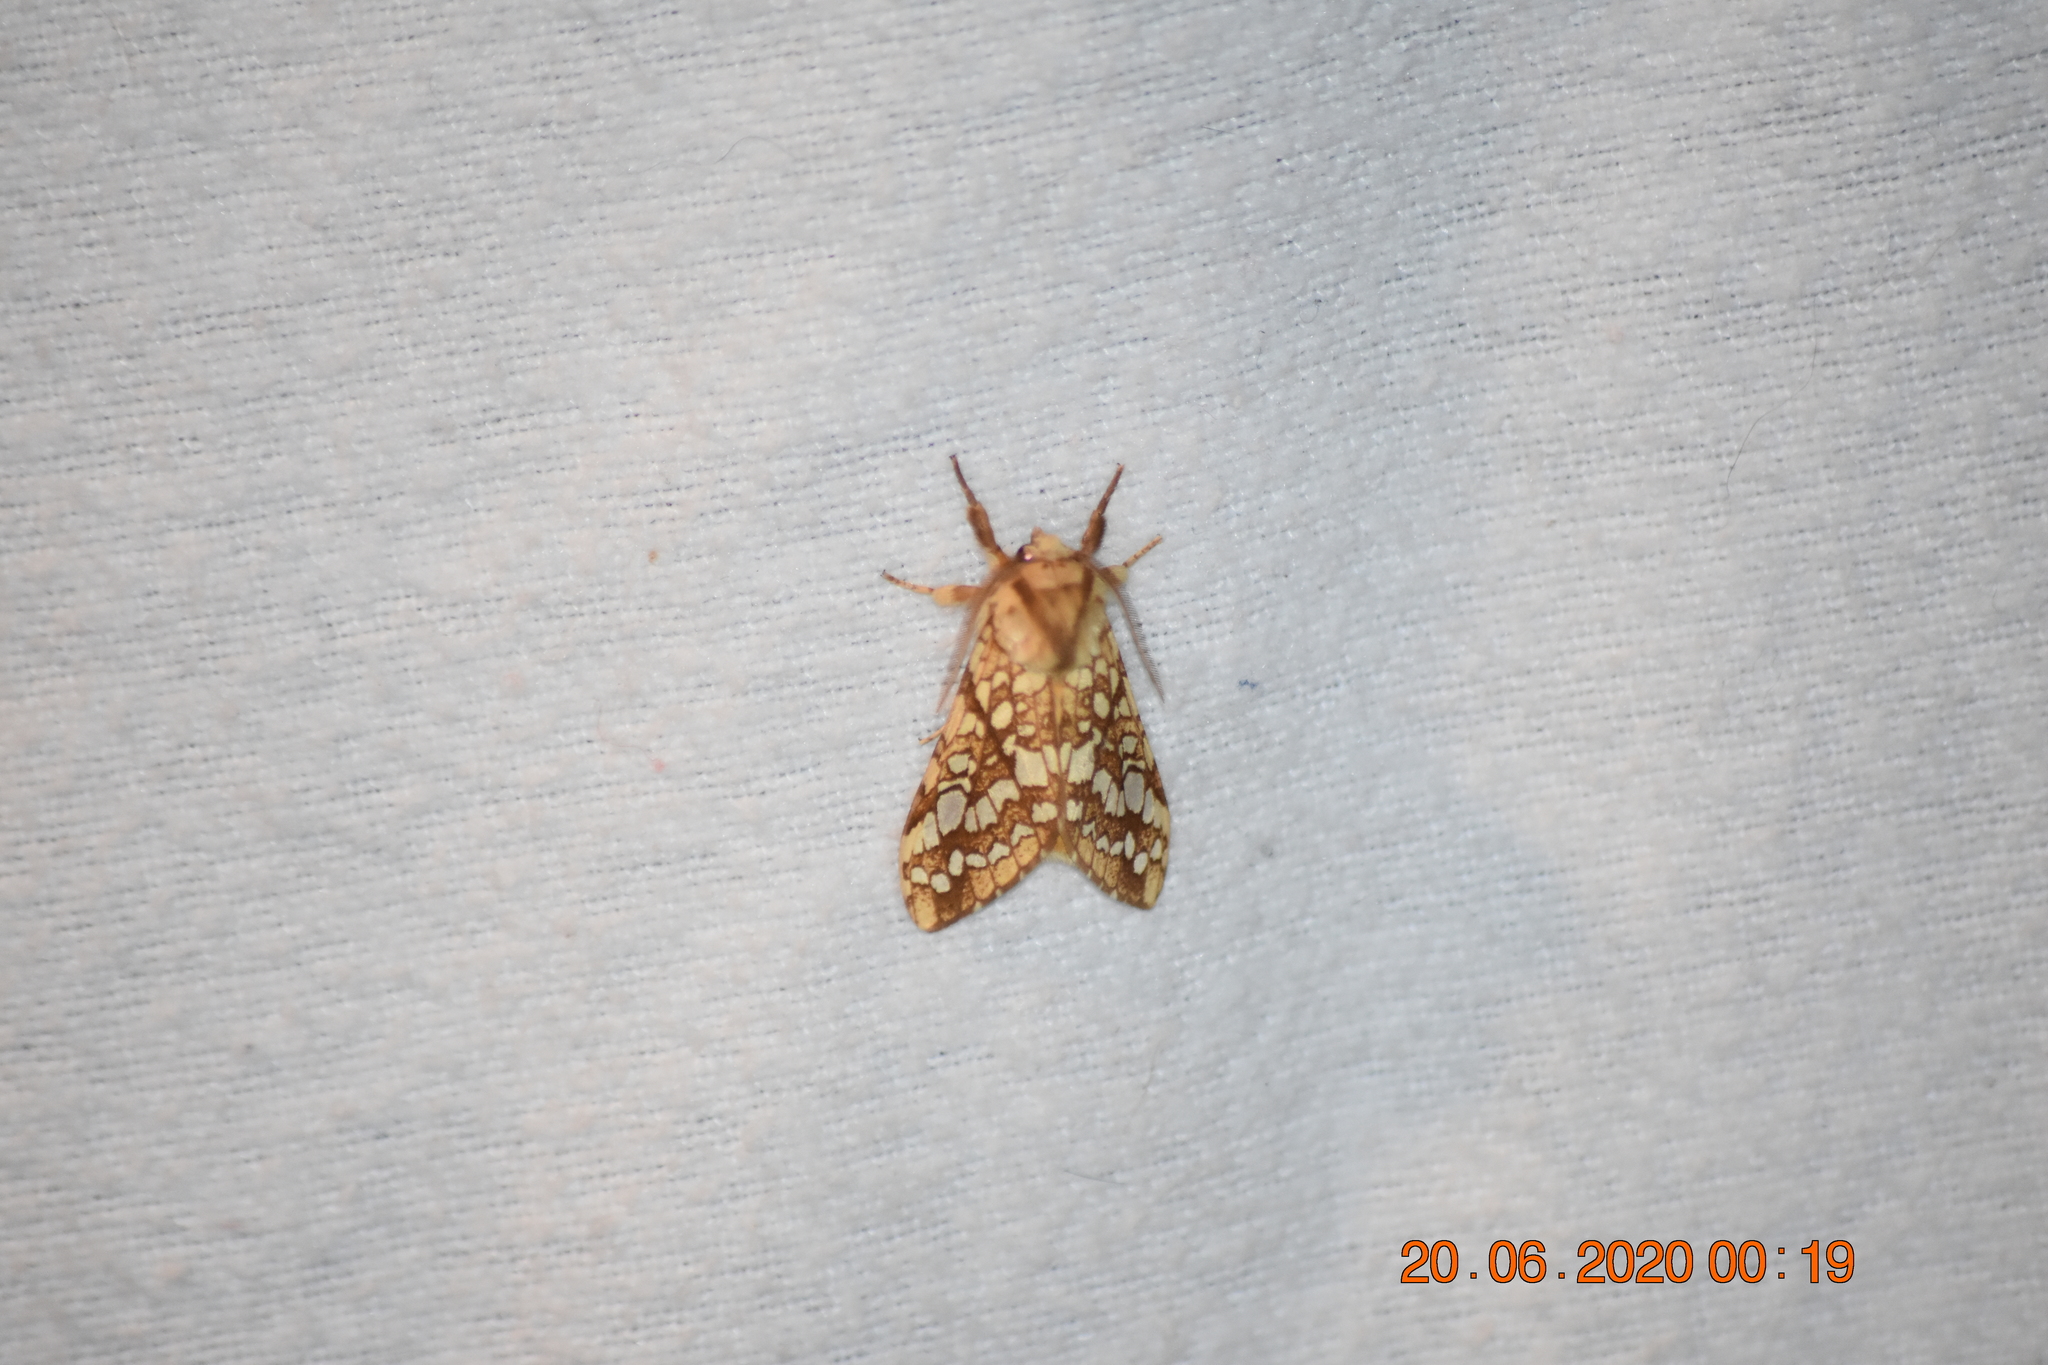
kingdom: Animalia
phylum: Arthropoda
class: Insecta
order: Lepidoptera
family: Erebidae
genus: Lophocampa
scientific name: Lophocampa caryae
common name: Hickory tussock moth
